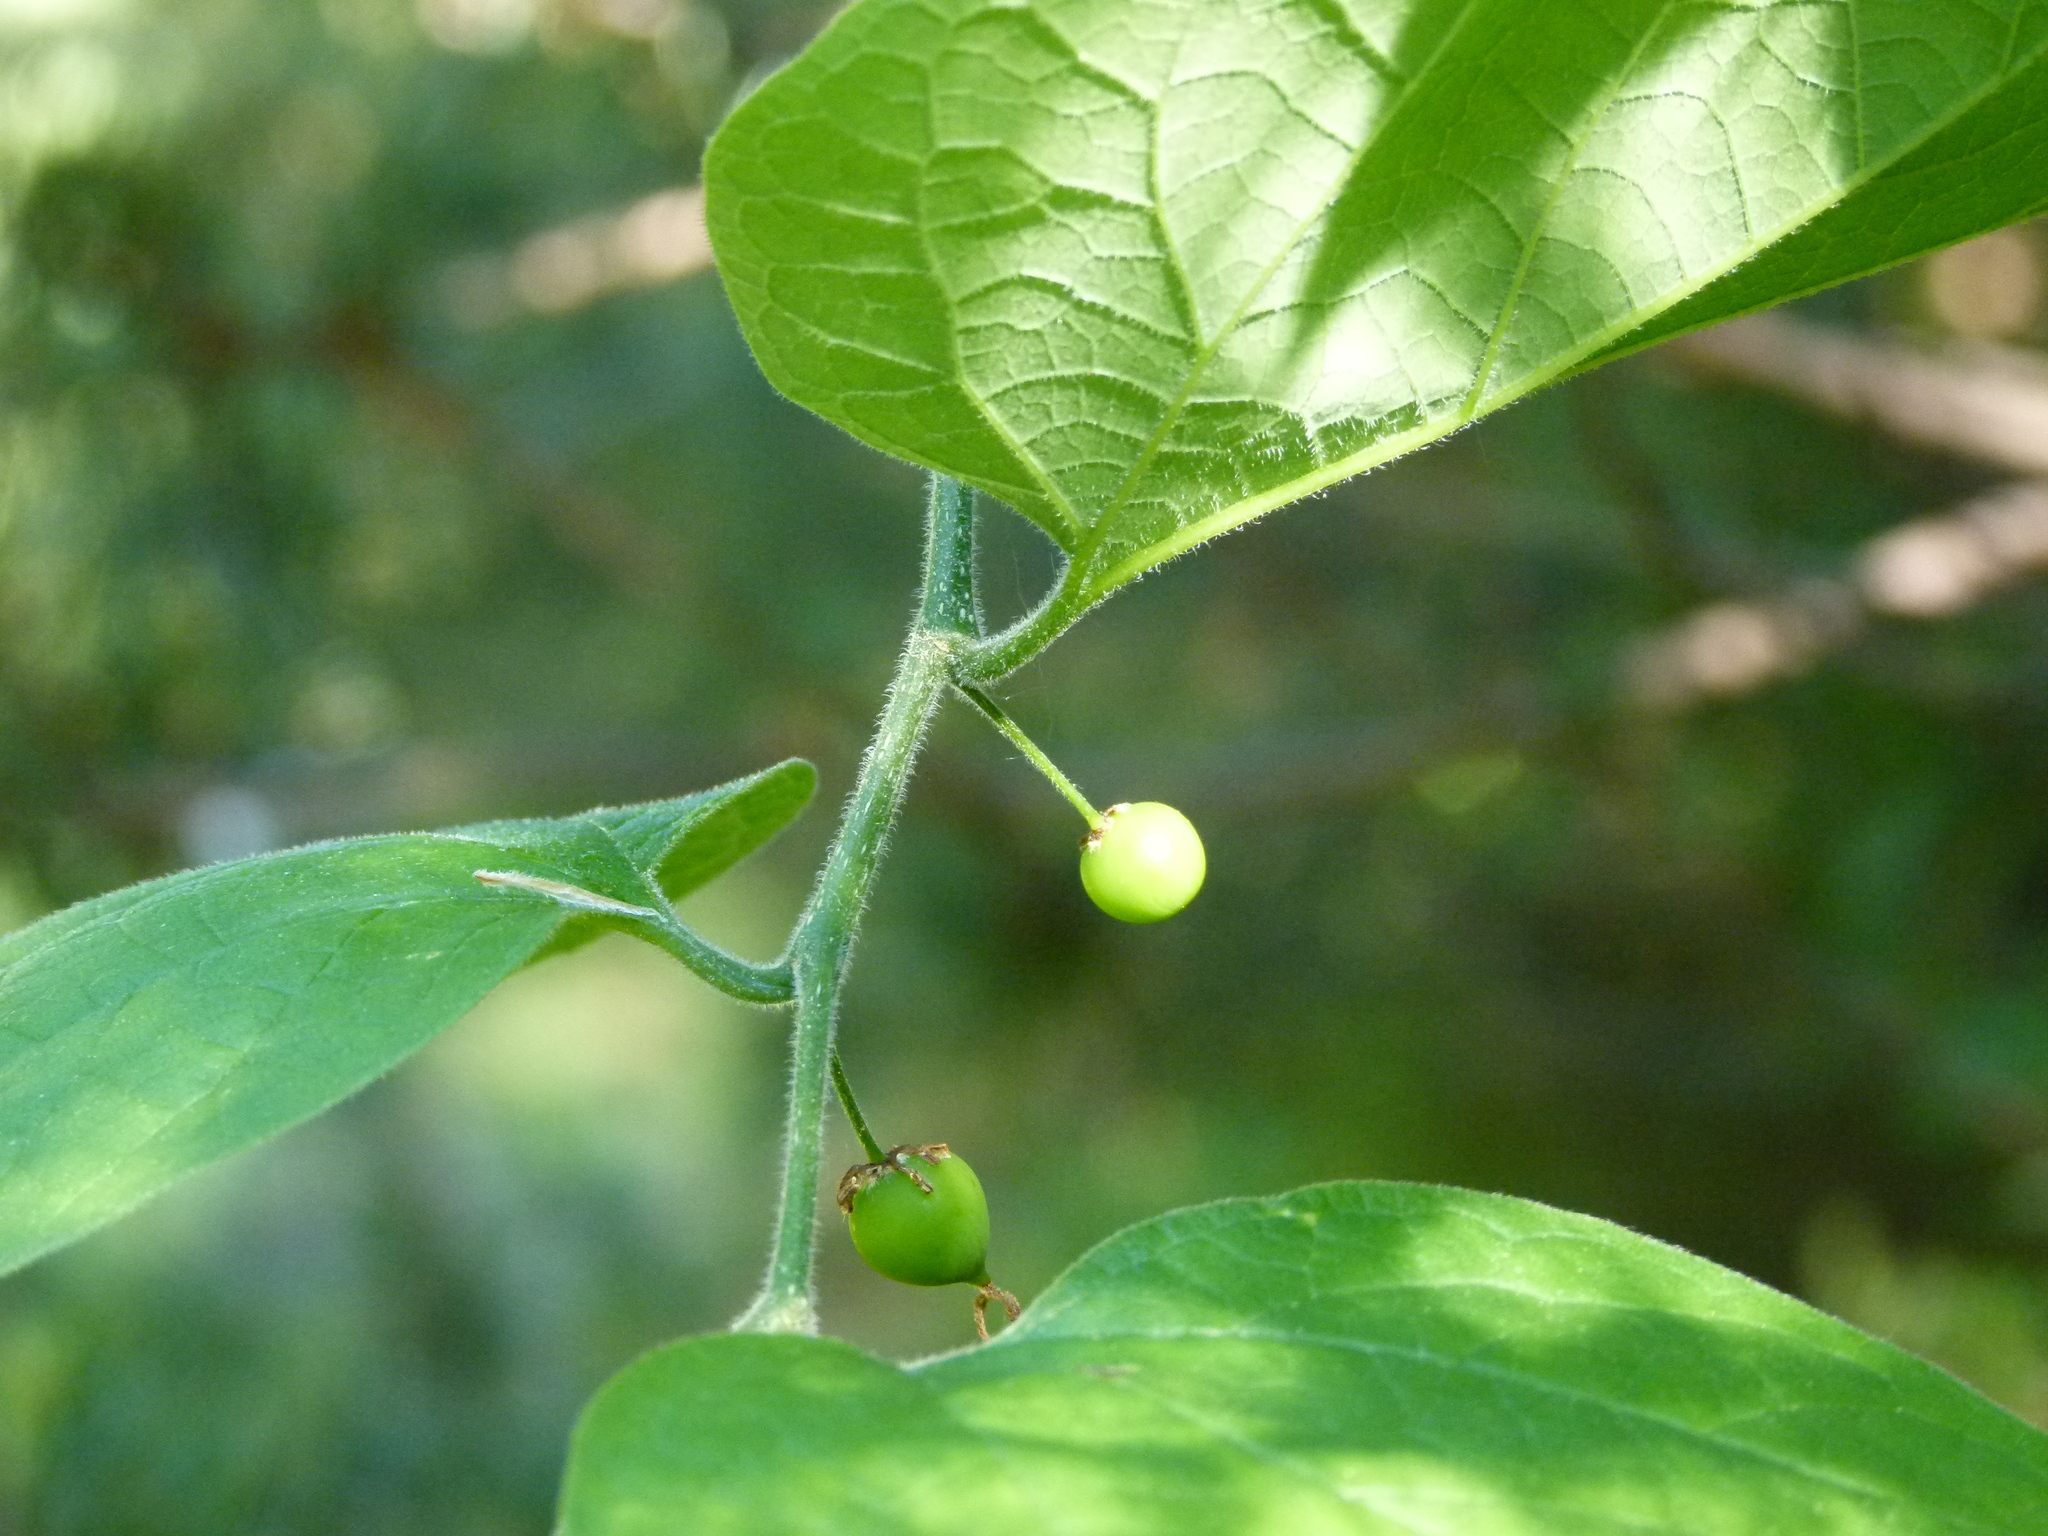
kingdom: Plantae
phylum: Tracheophyta
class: Magnoliopsida
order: Rosales
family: Cannabaceae
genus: Celtis
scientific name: Celtis occidentalis
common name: Common hackberry
